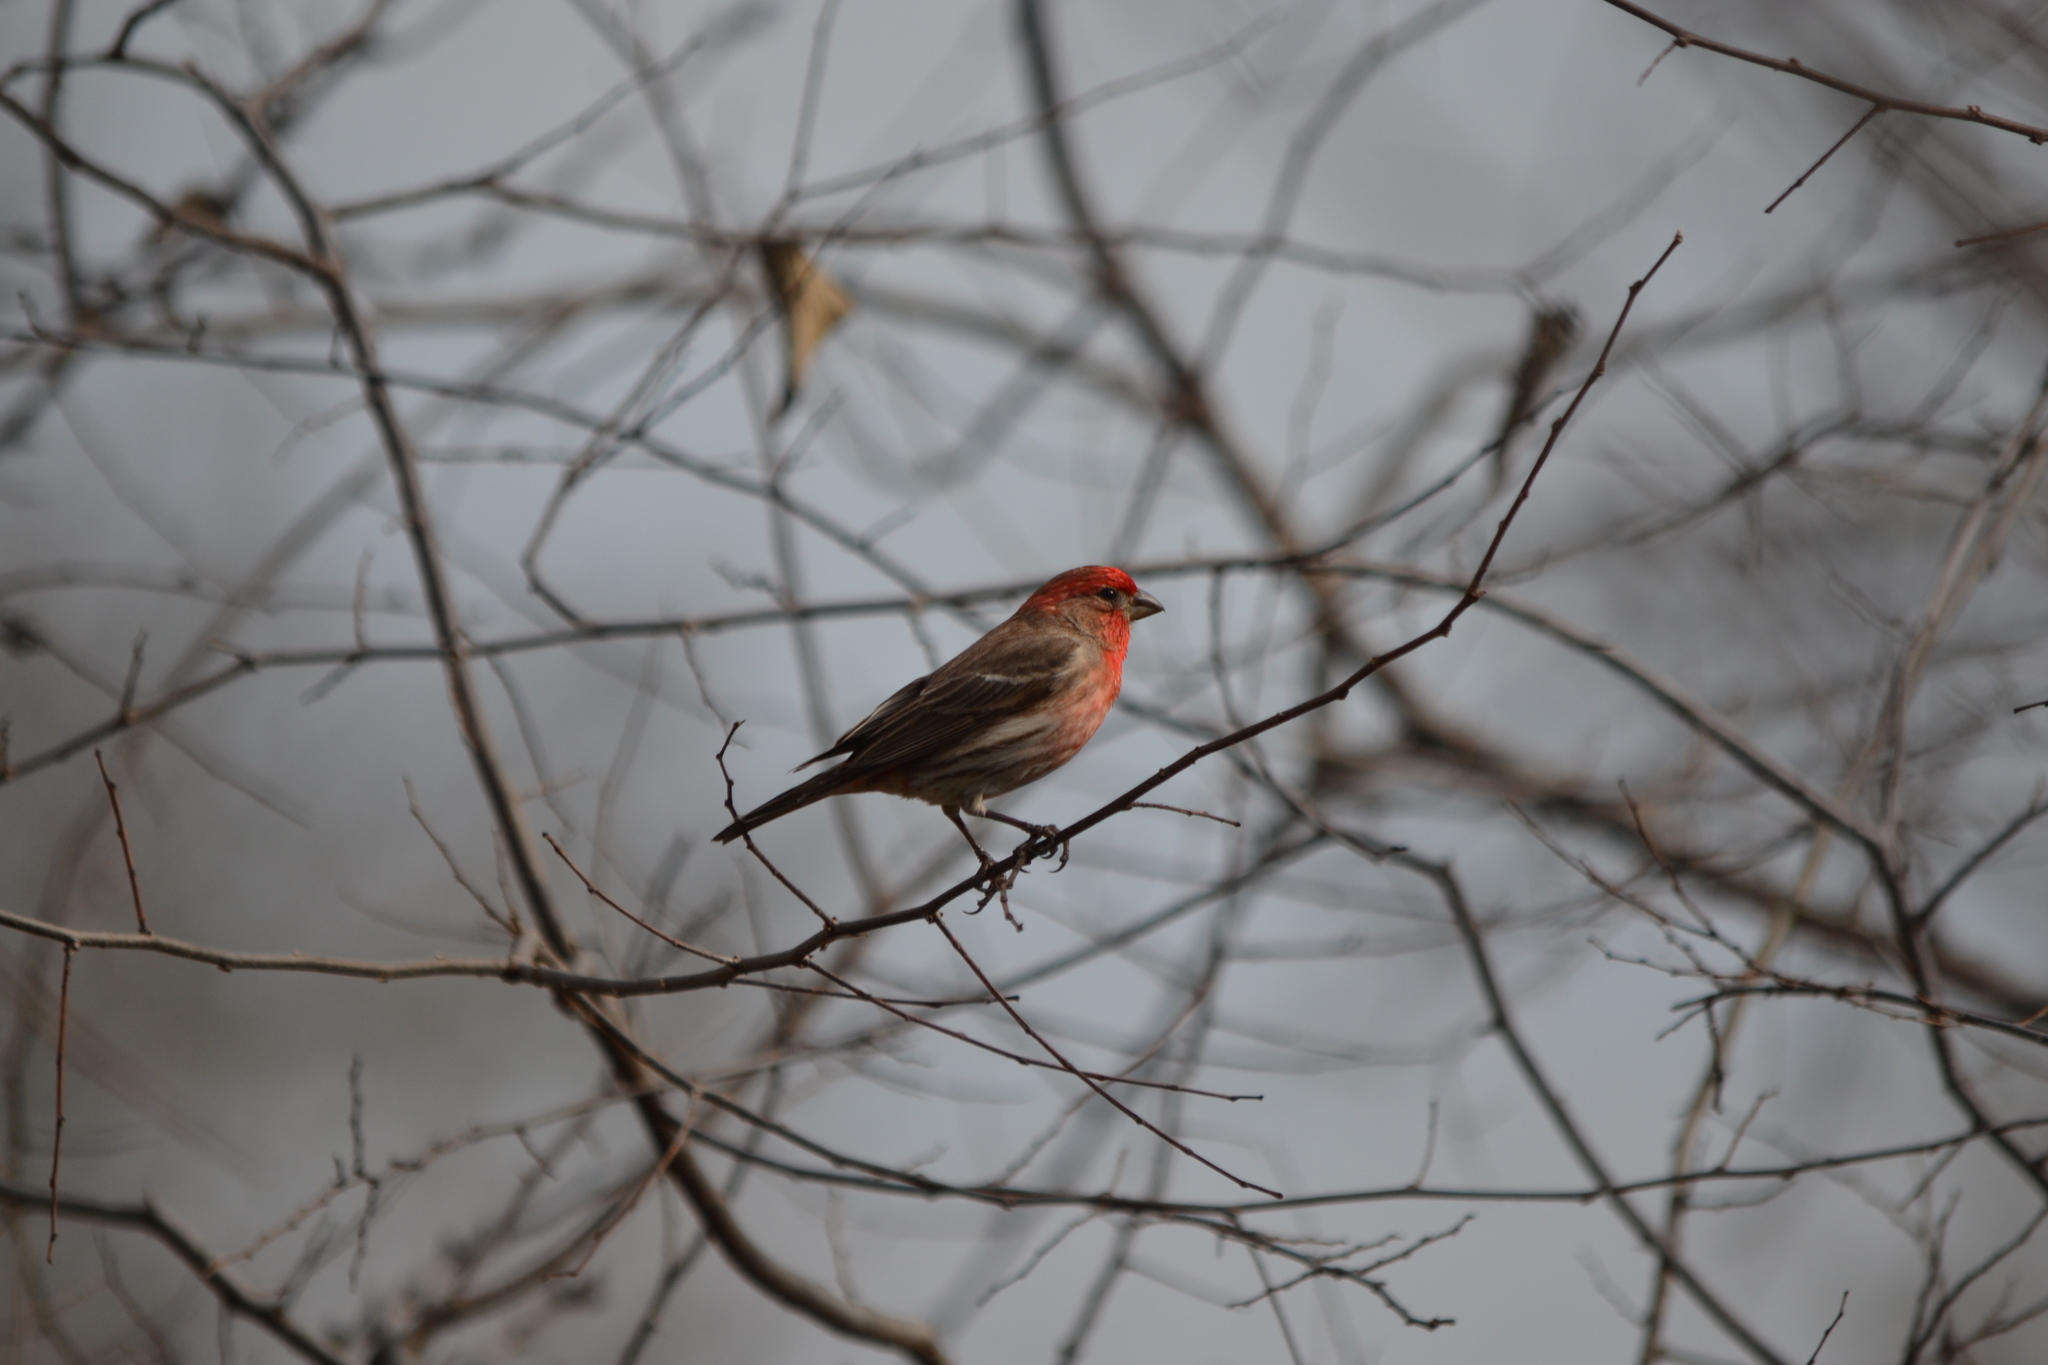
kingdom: Animalia
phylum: Chordata
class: Aves
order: Passeriformes
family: Fringillidae
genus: Haemorhous
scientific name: Haemorhous mexicanus
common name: House finch
